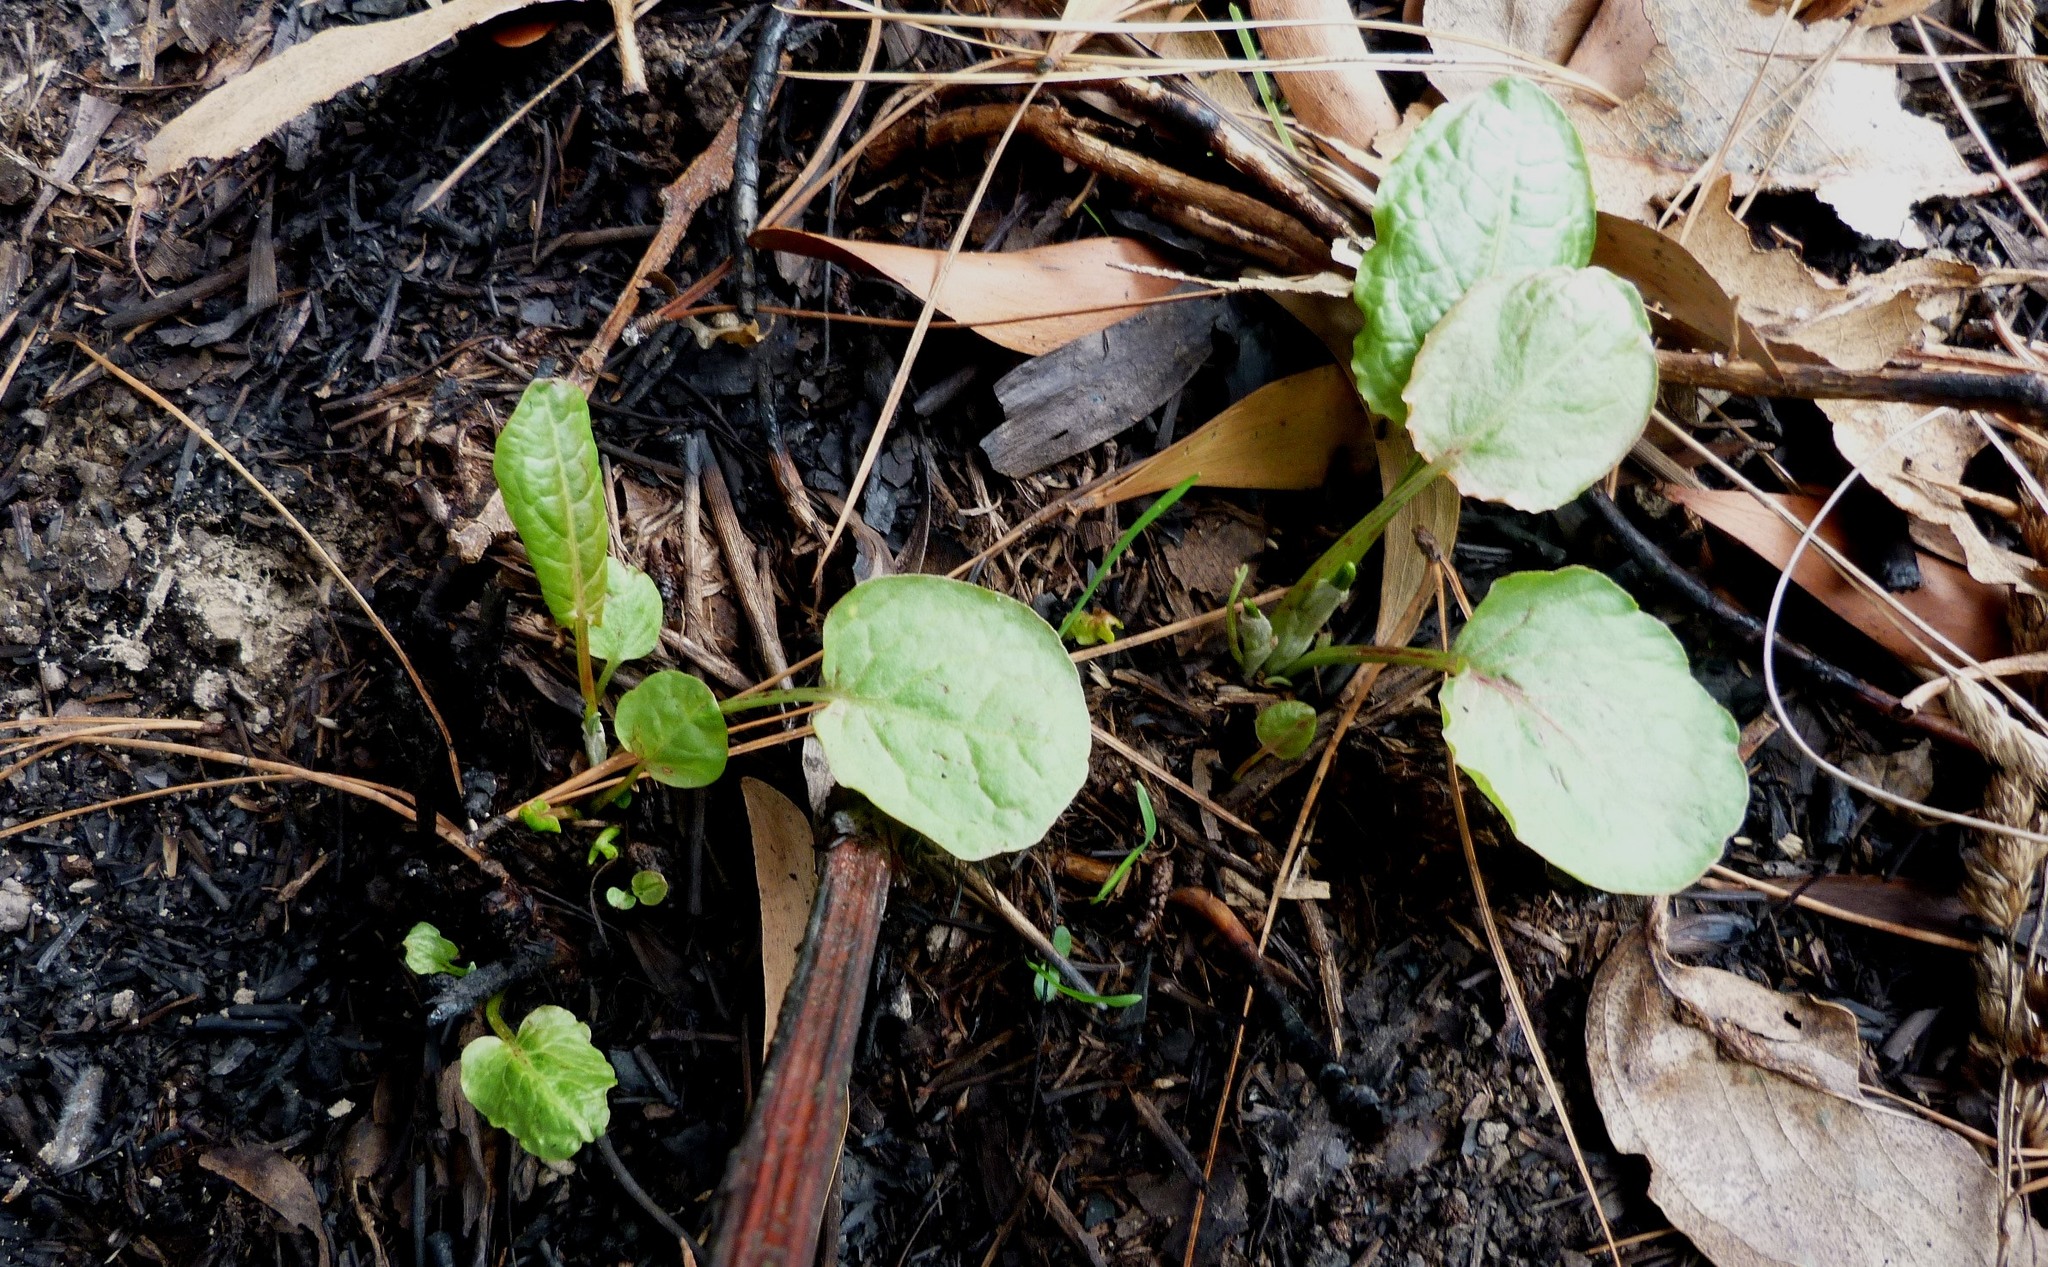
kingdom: Plantae
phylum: Tracheophyta
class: Magnoliopsida
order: Caryophyllales
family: Polygonaceae
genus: Rumex
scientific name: Rumex obtusifolius
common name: Bitter dock
